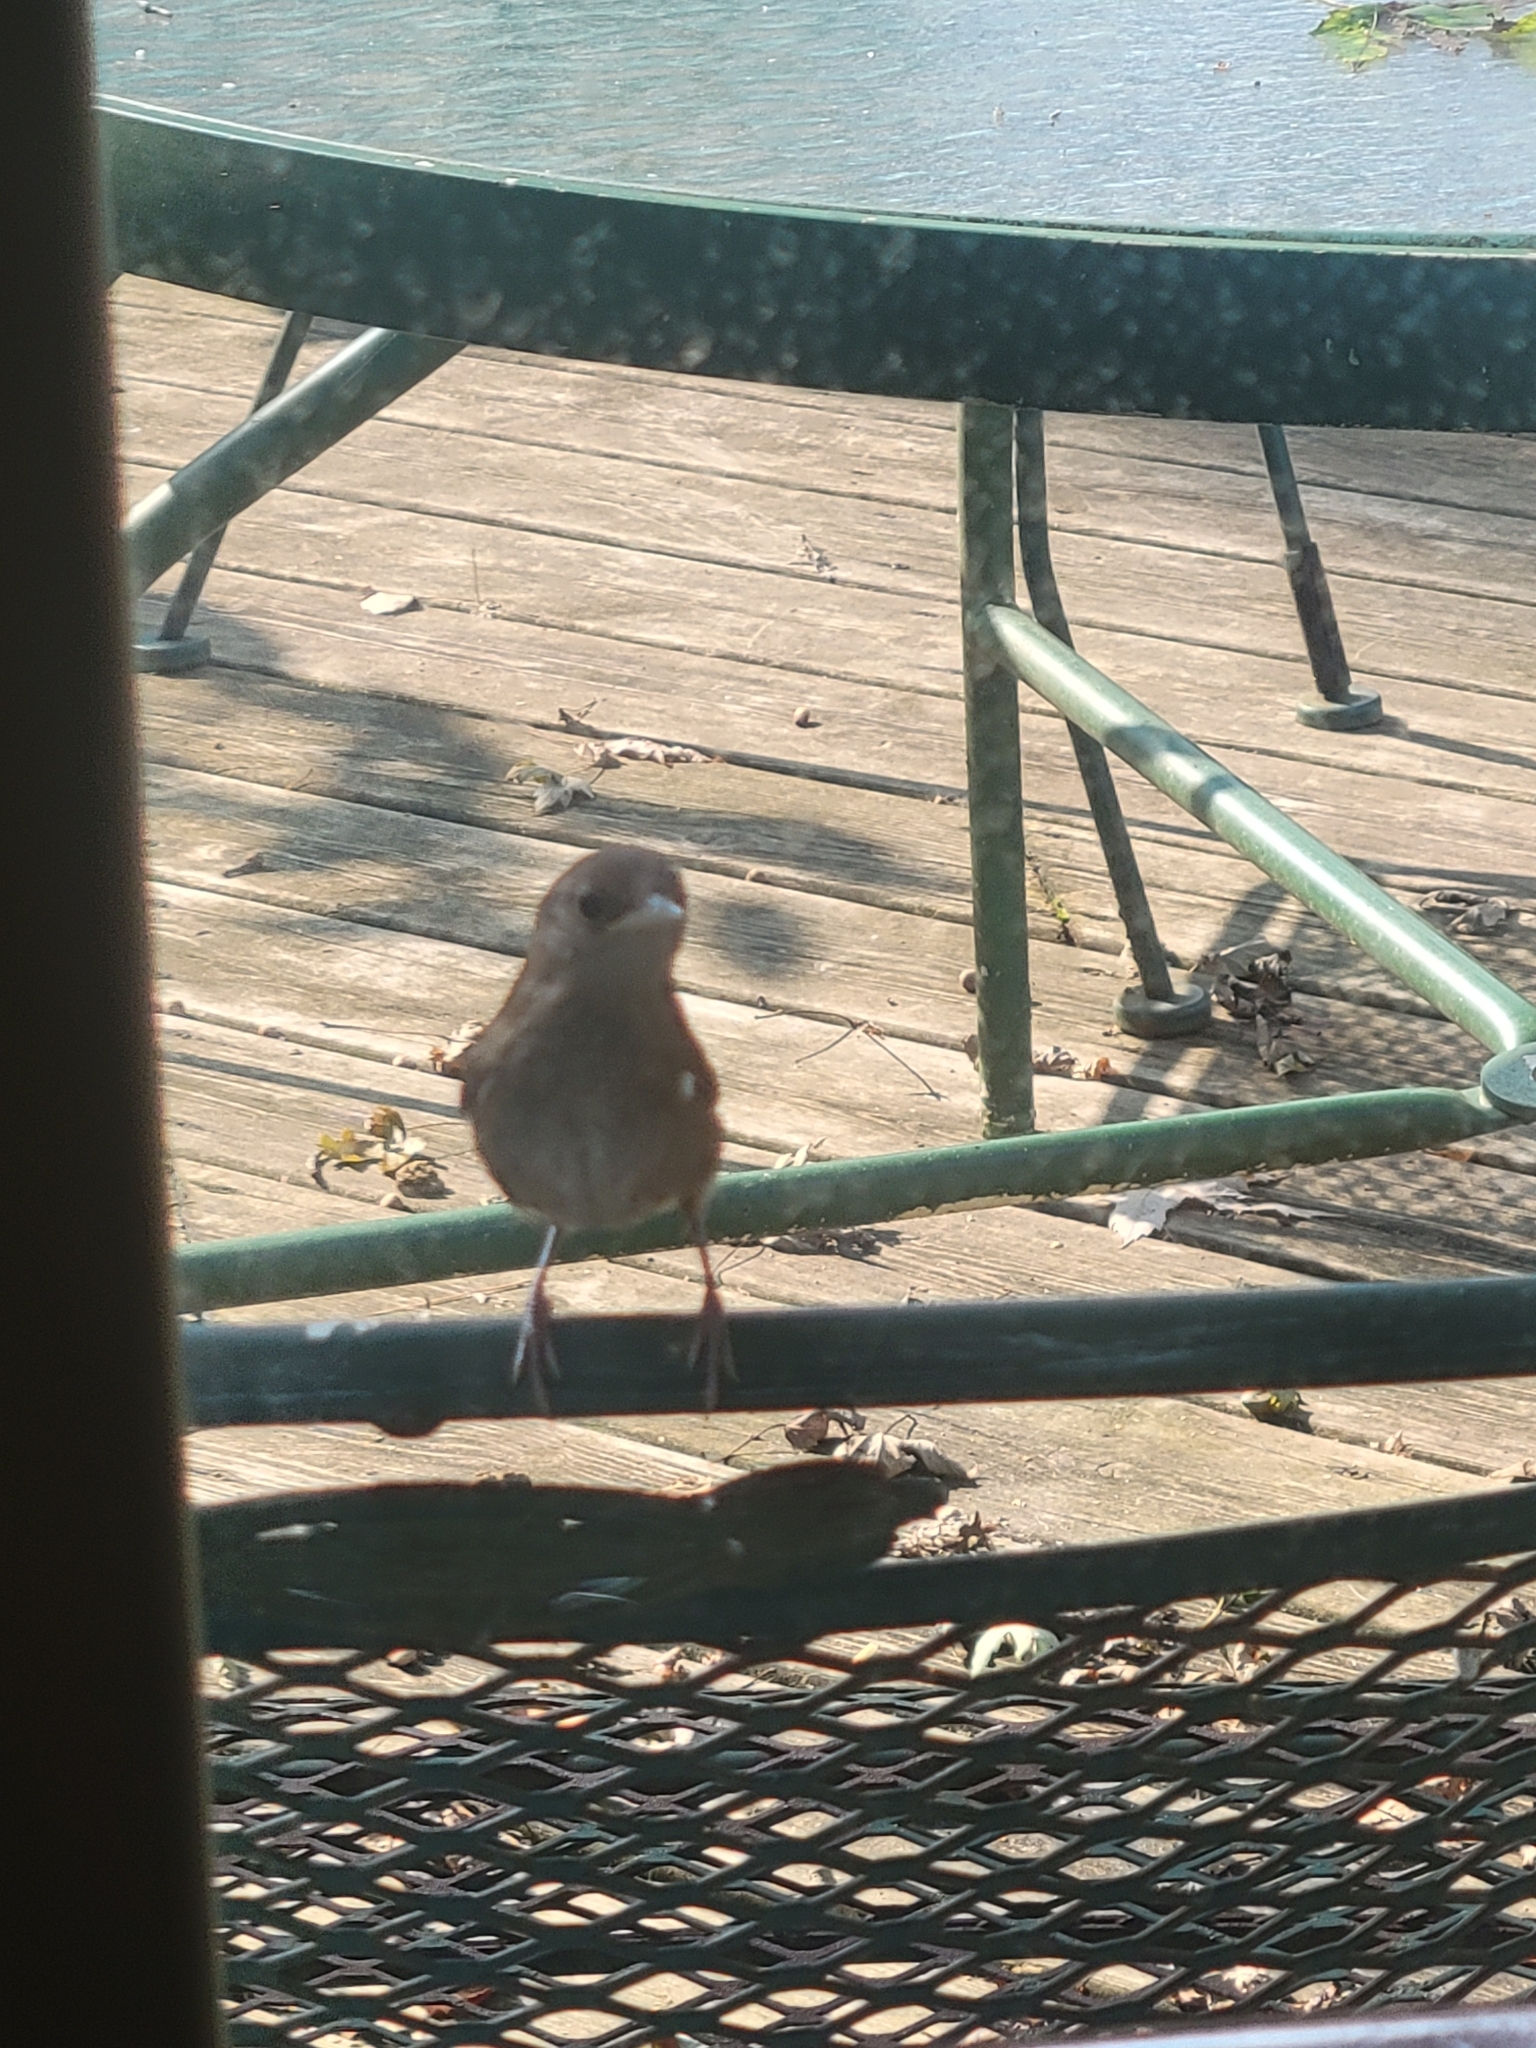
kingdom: Animalia
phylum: Chordata
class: Aves
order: Passeriformes
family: Troglodytidae
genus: Troglodytes
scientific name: Troglodytes aedon
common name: House wren
